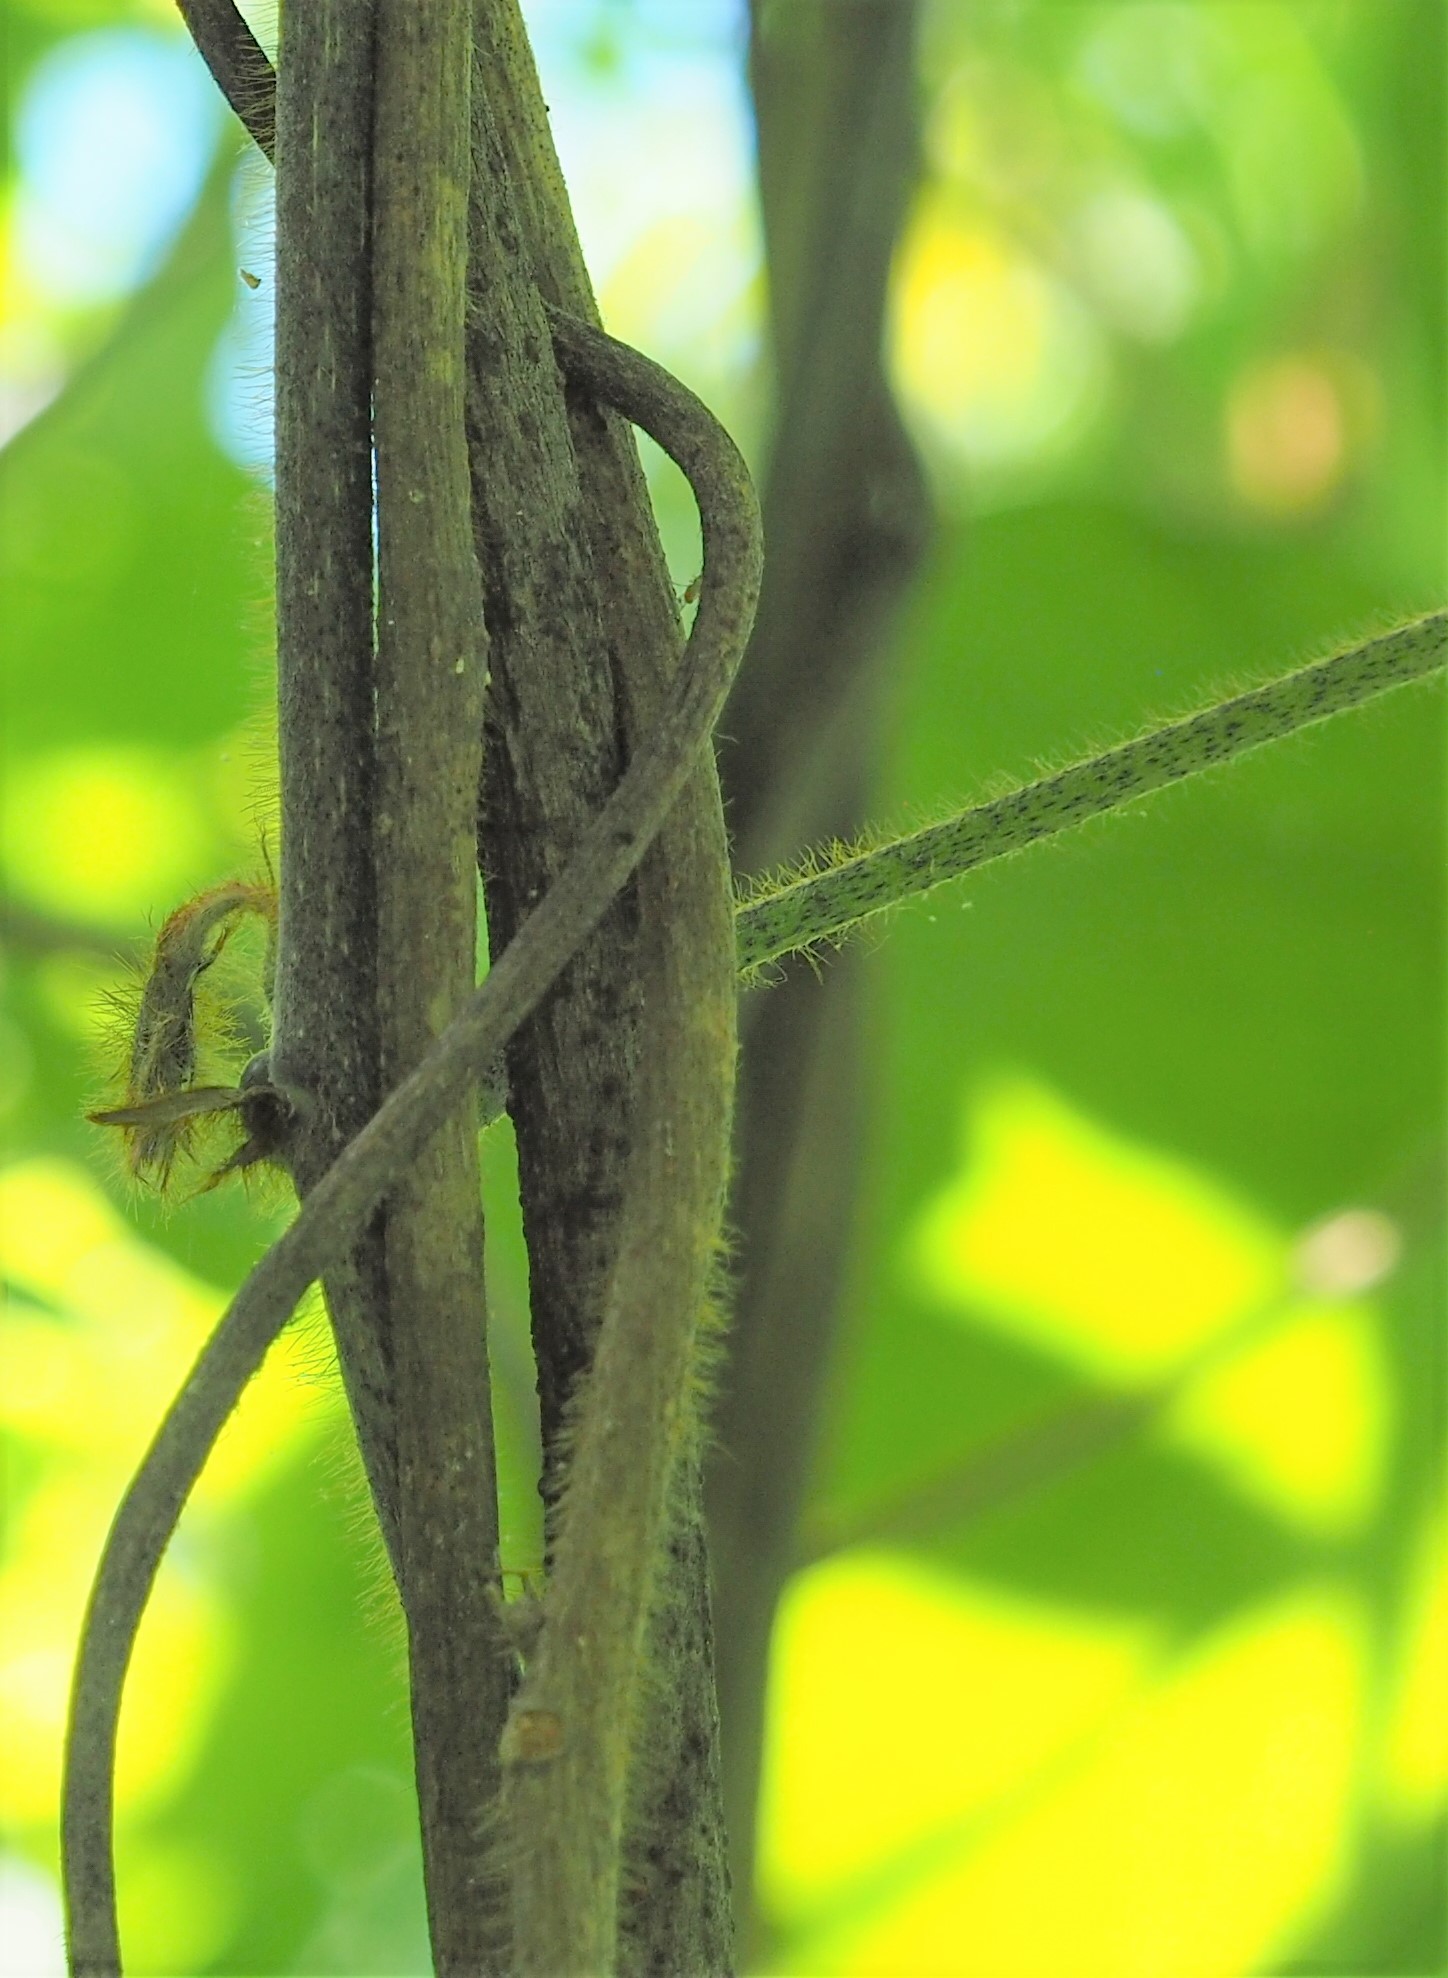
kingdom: Plantae
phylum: Tracheophyta
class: Magnoliopsida
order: Fabales
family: Fabaceae
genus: Pueraria
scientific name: Pueraria montana
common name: Kudzu
